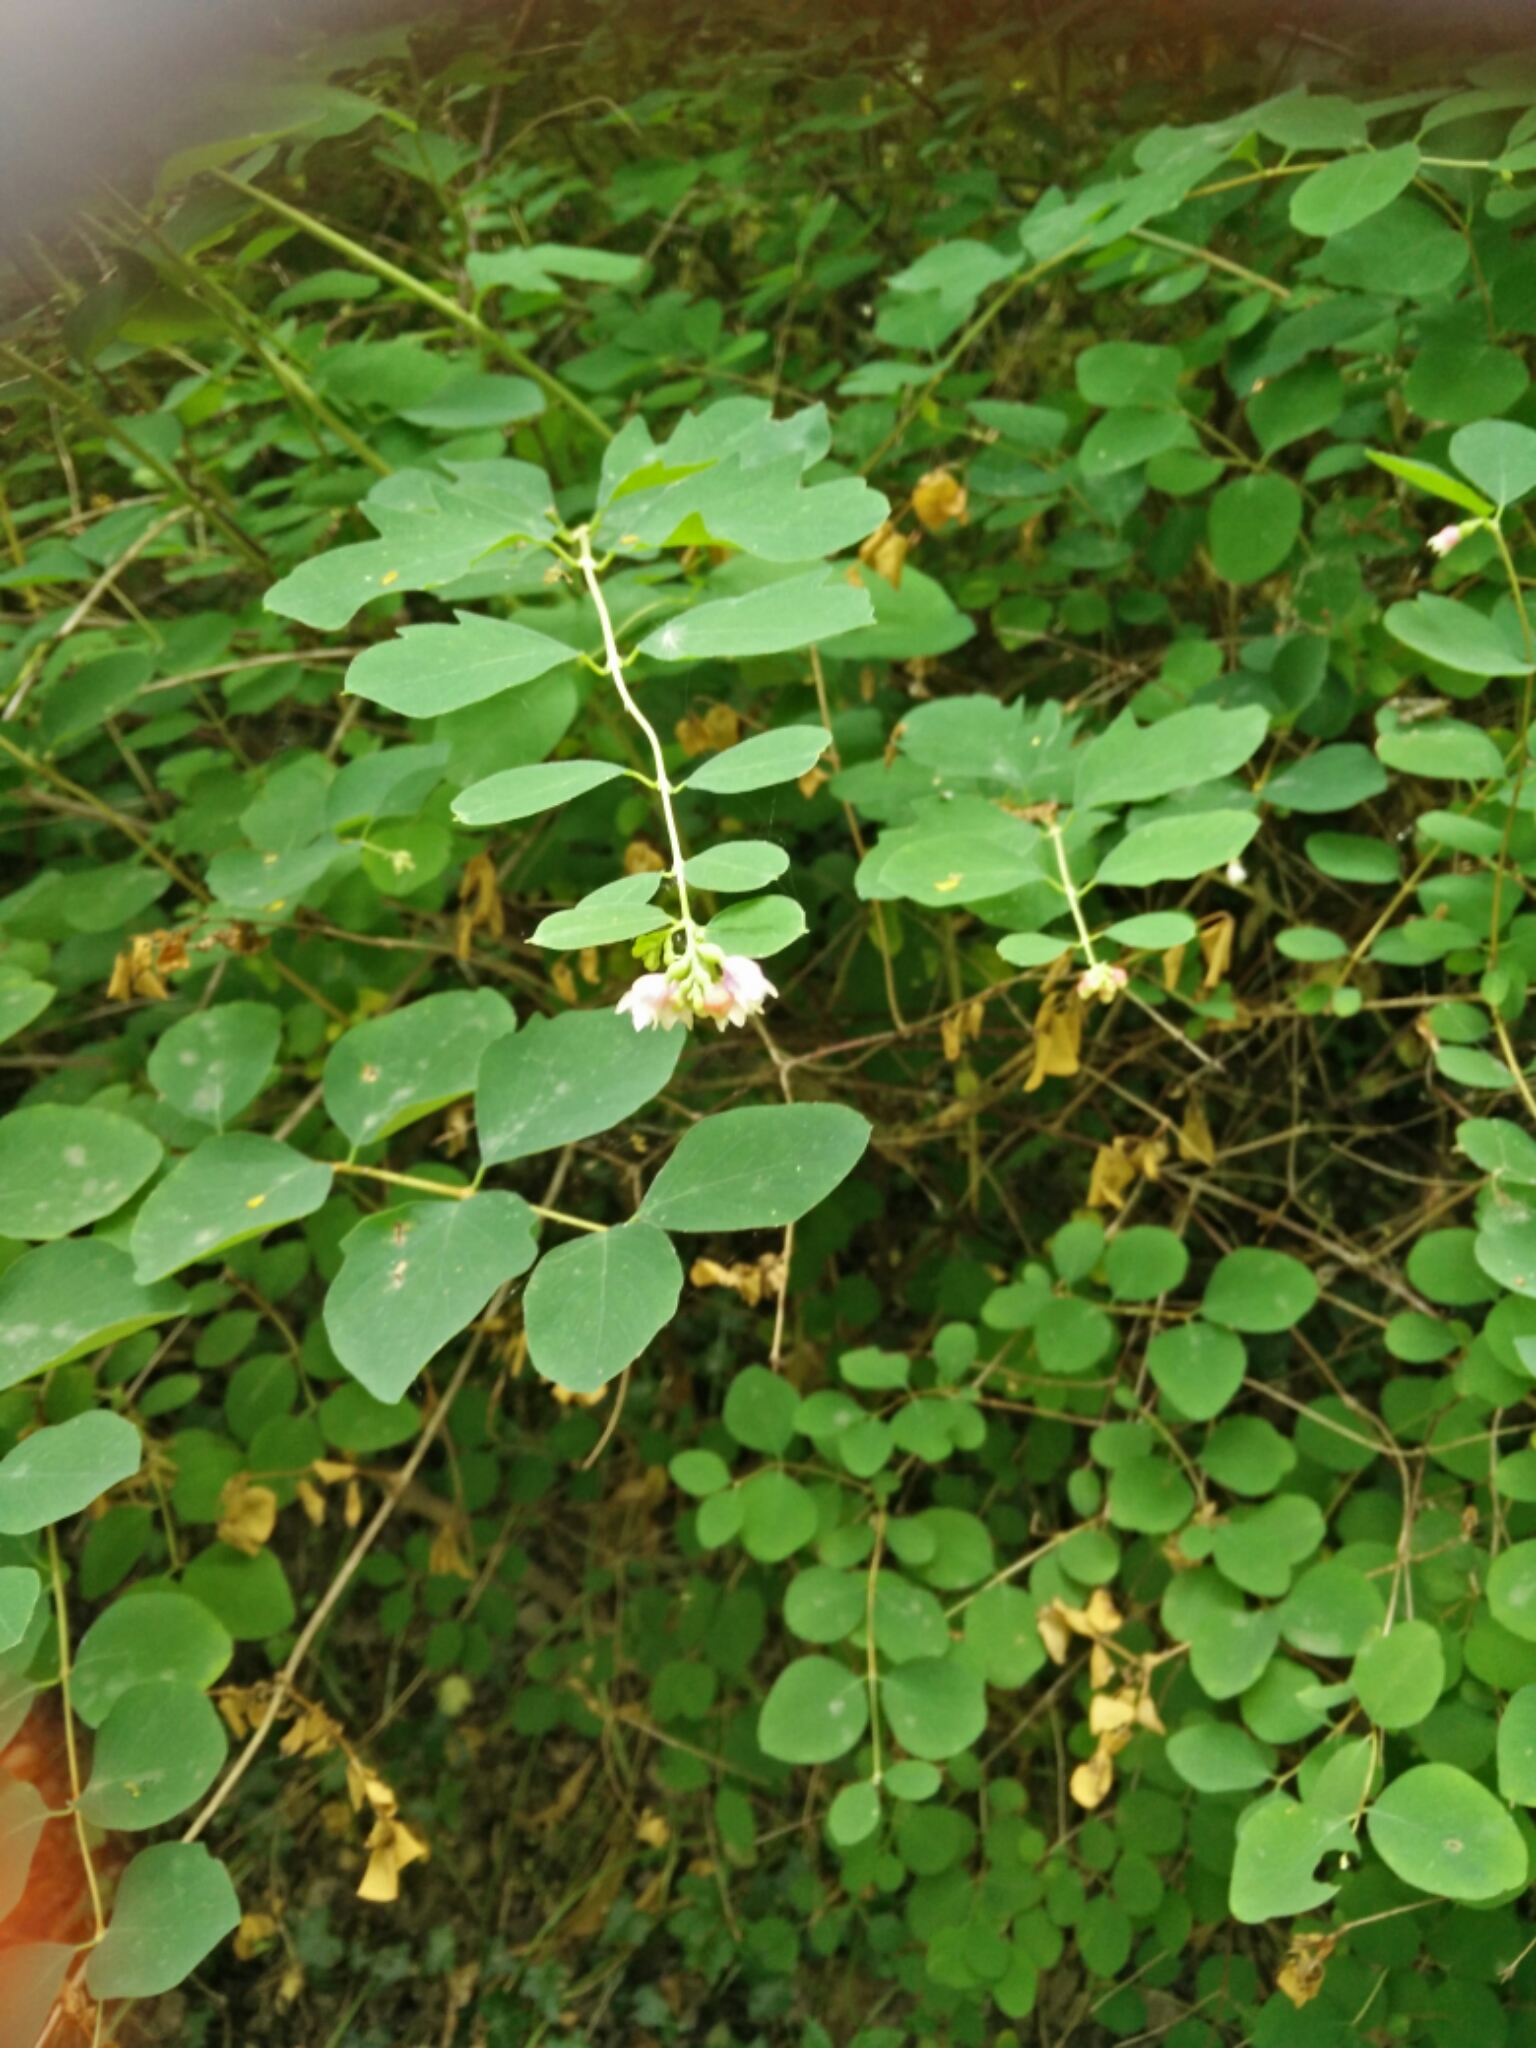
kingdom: Plantae
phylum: Tracheophyta
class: Magnoliopsida
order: Dipsacales
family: Caprifoliaceae
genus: Symphoricarpos
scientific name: Symphoricarpos albus
